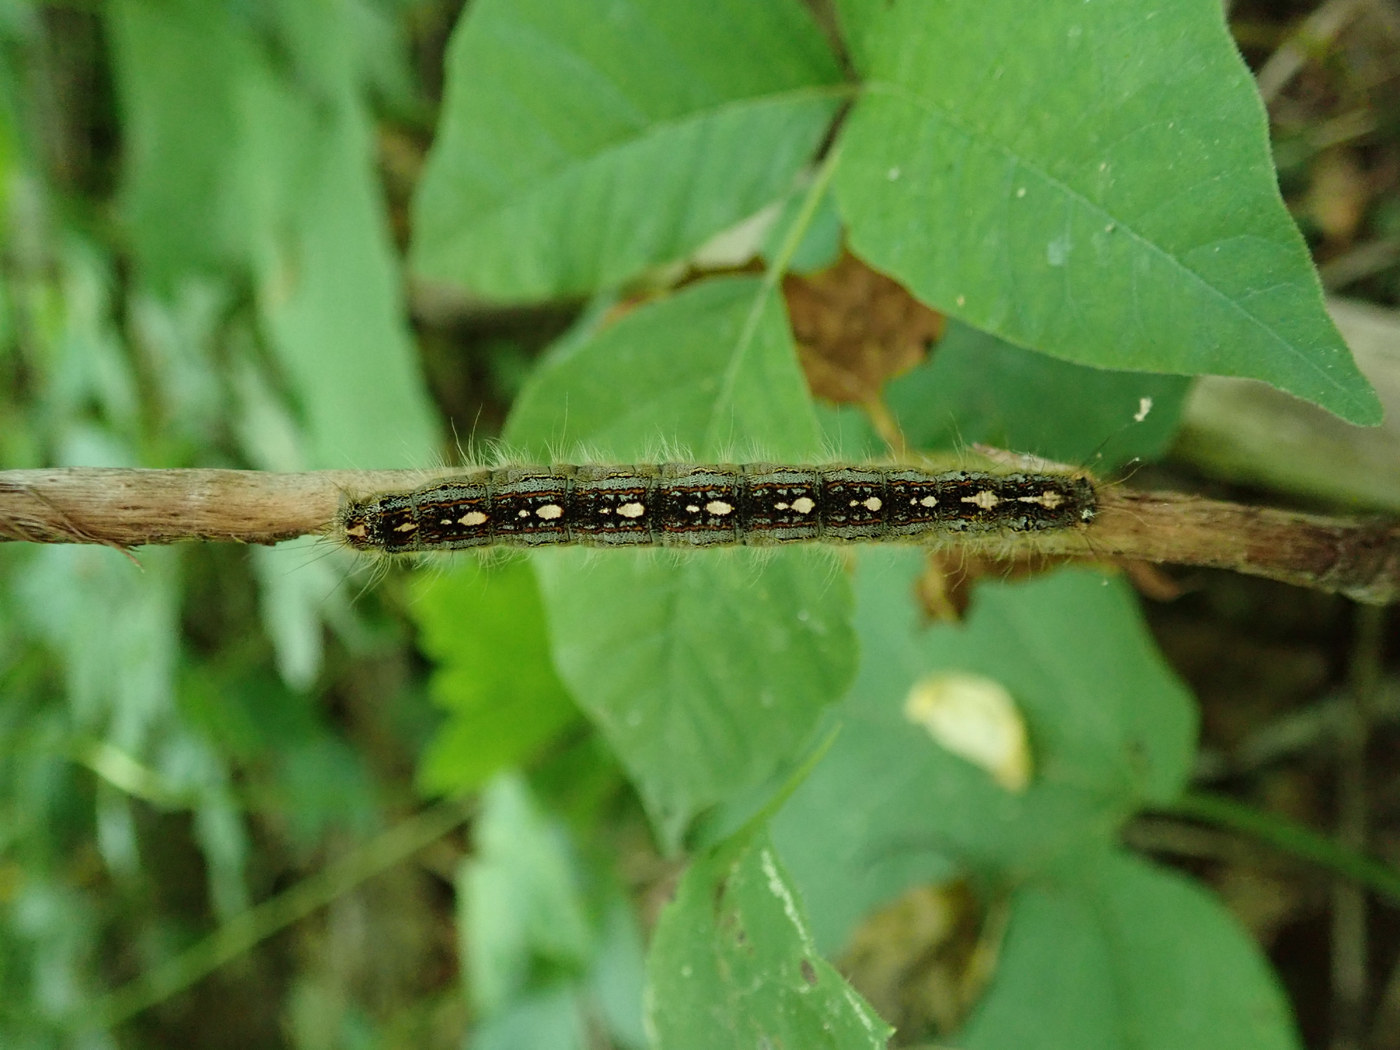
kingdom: Animalia
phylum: Arthropoda
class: Insecta
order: Lepidoptera
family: Lasiocampidae
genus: Malacosoma
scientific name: Malacosoma disstria
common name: Forest tent caterpillar
